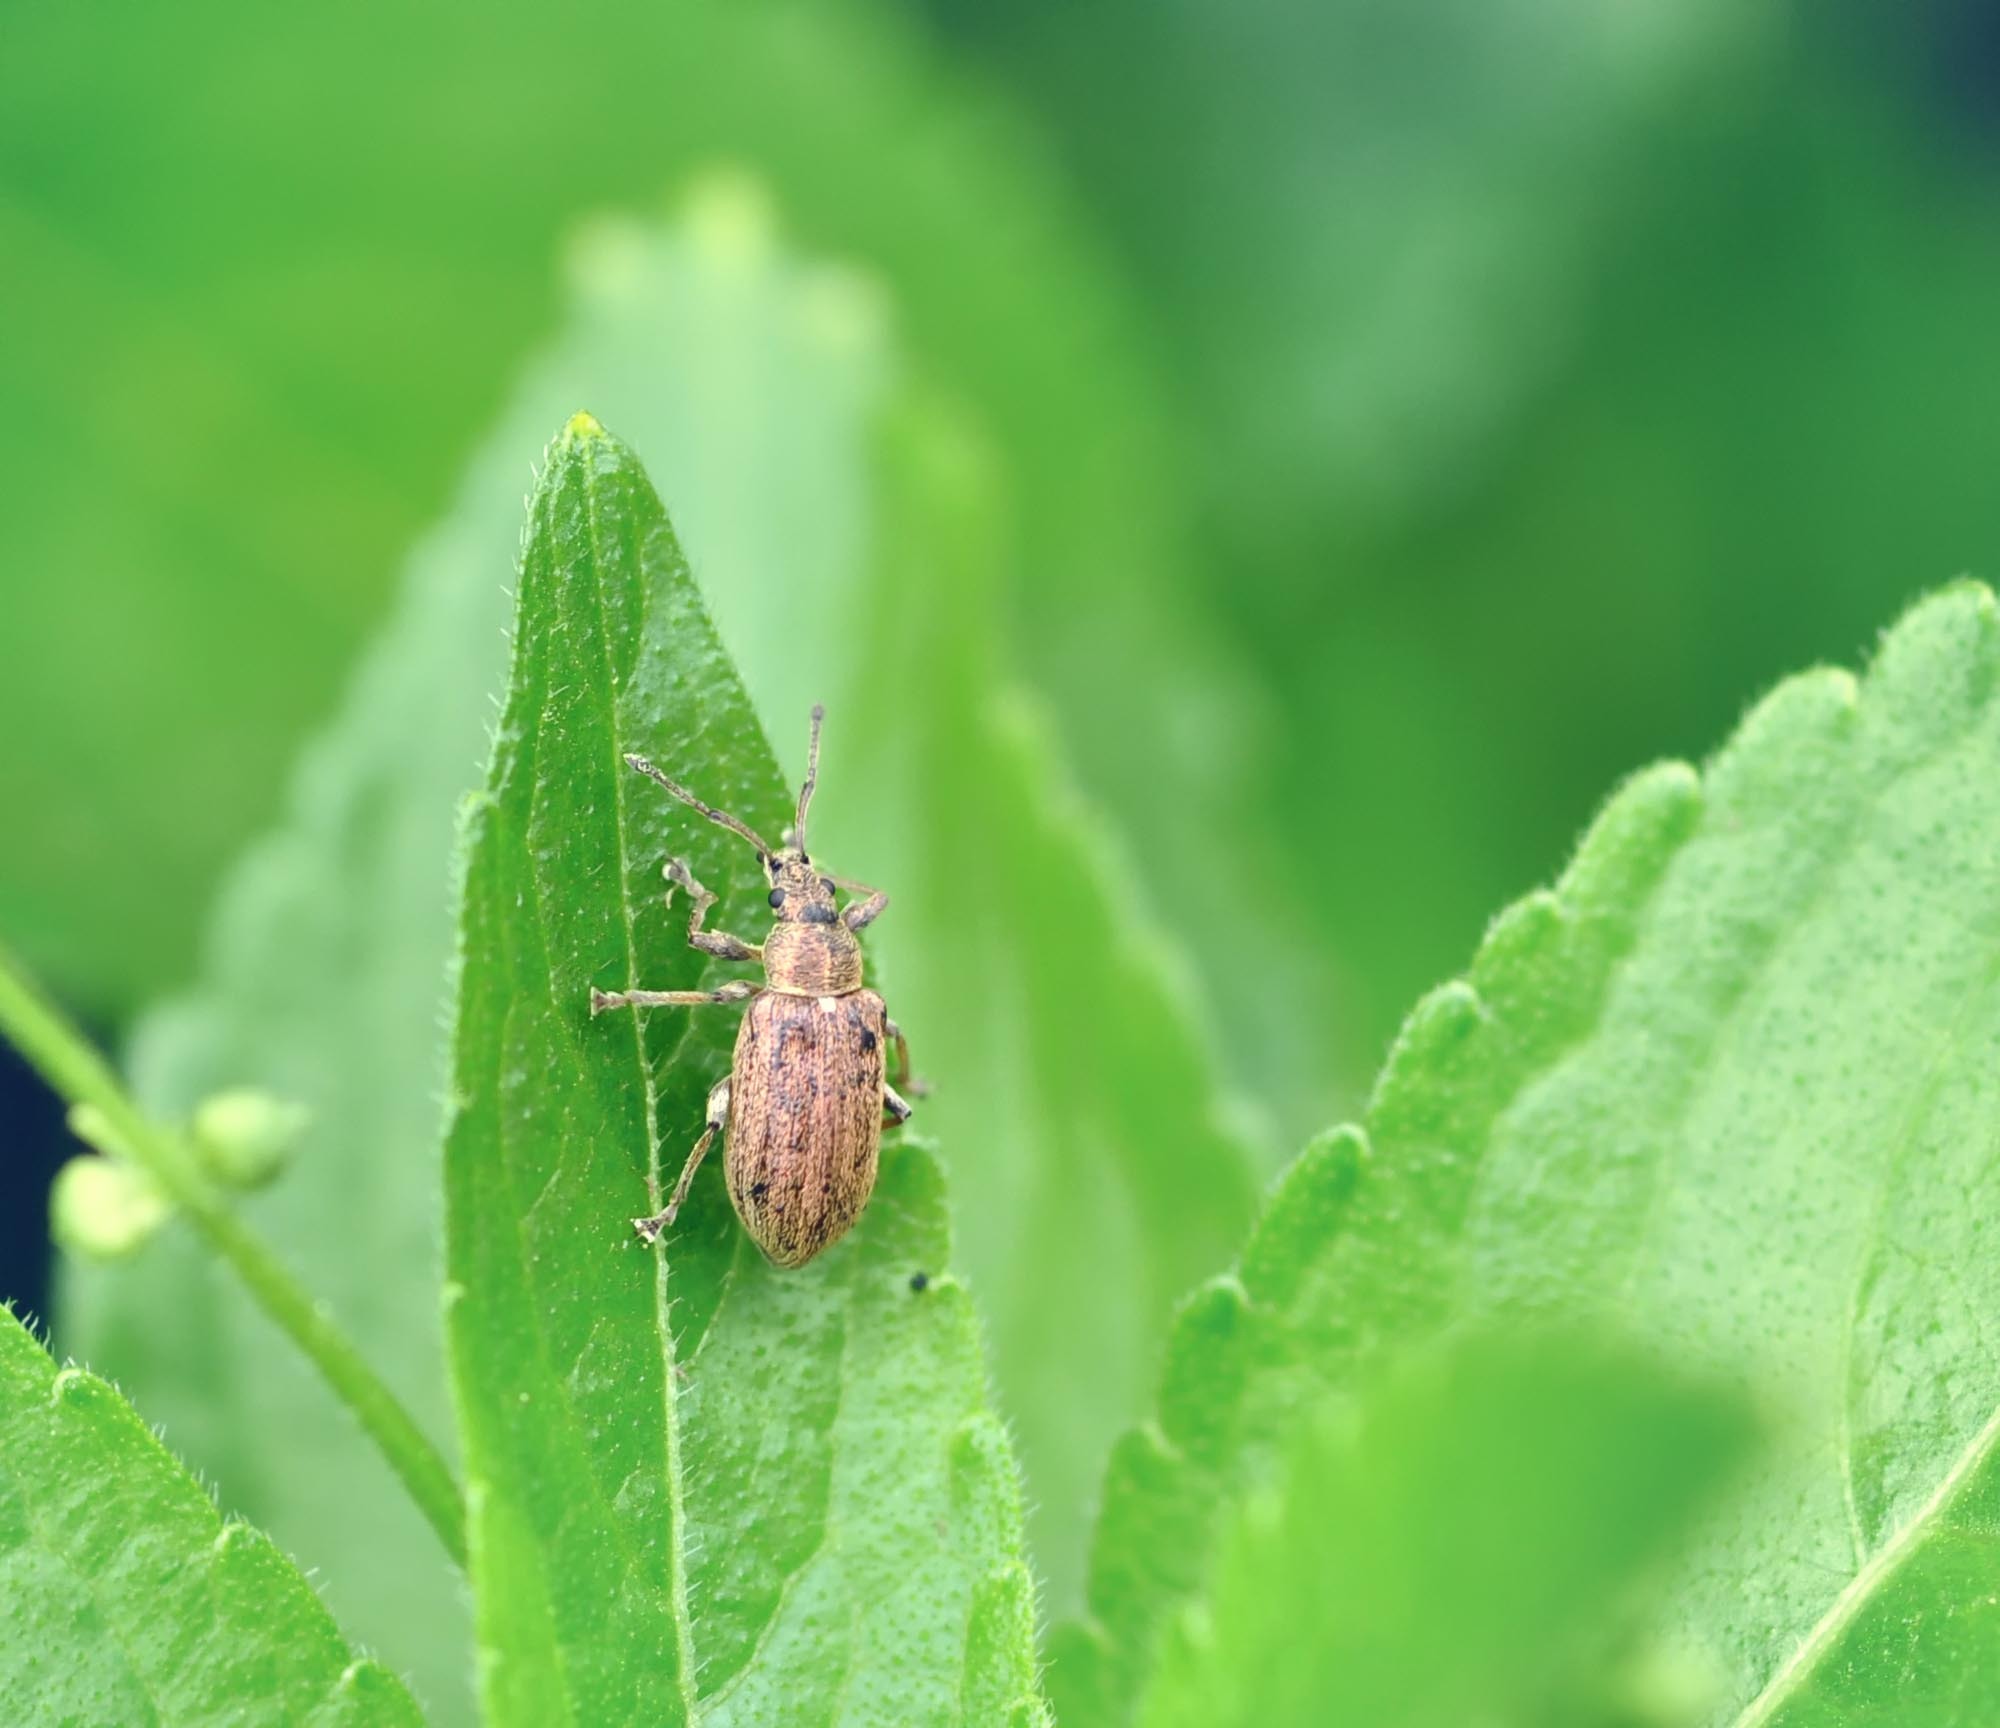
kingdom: Animalia
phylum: Arthropoda
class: Insecta
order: Coleoptera
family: Curculionidae
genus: Phyllobius
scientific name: Phyllobius pyri
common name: Common leaf weevil
